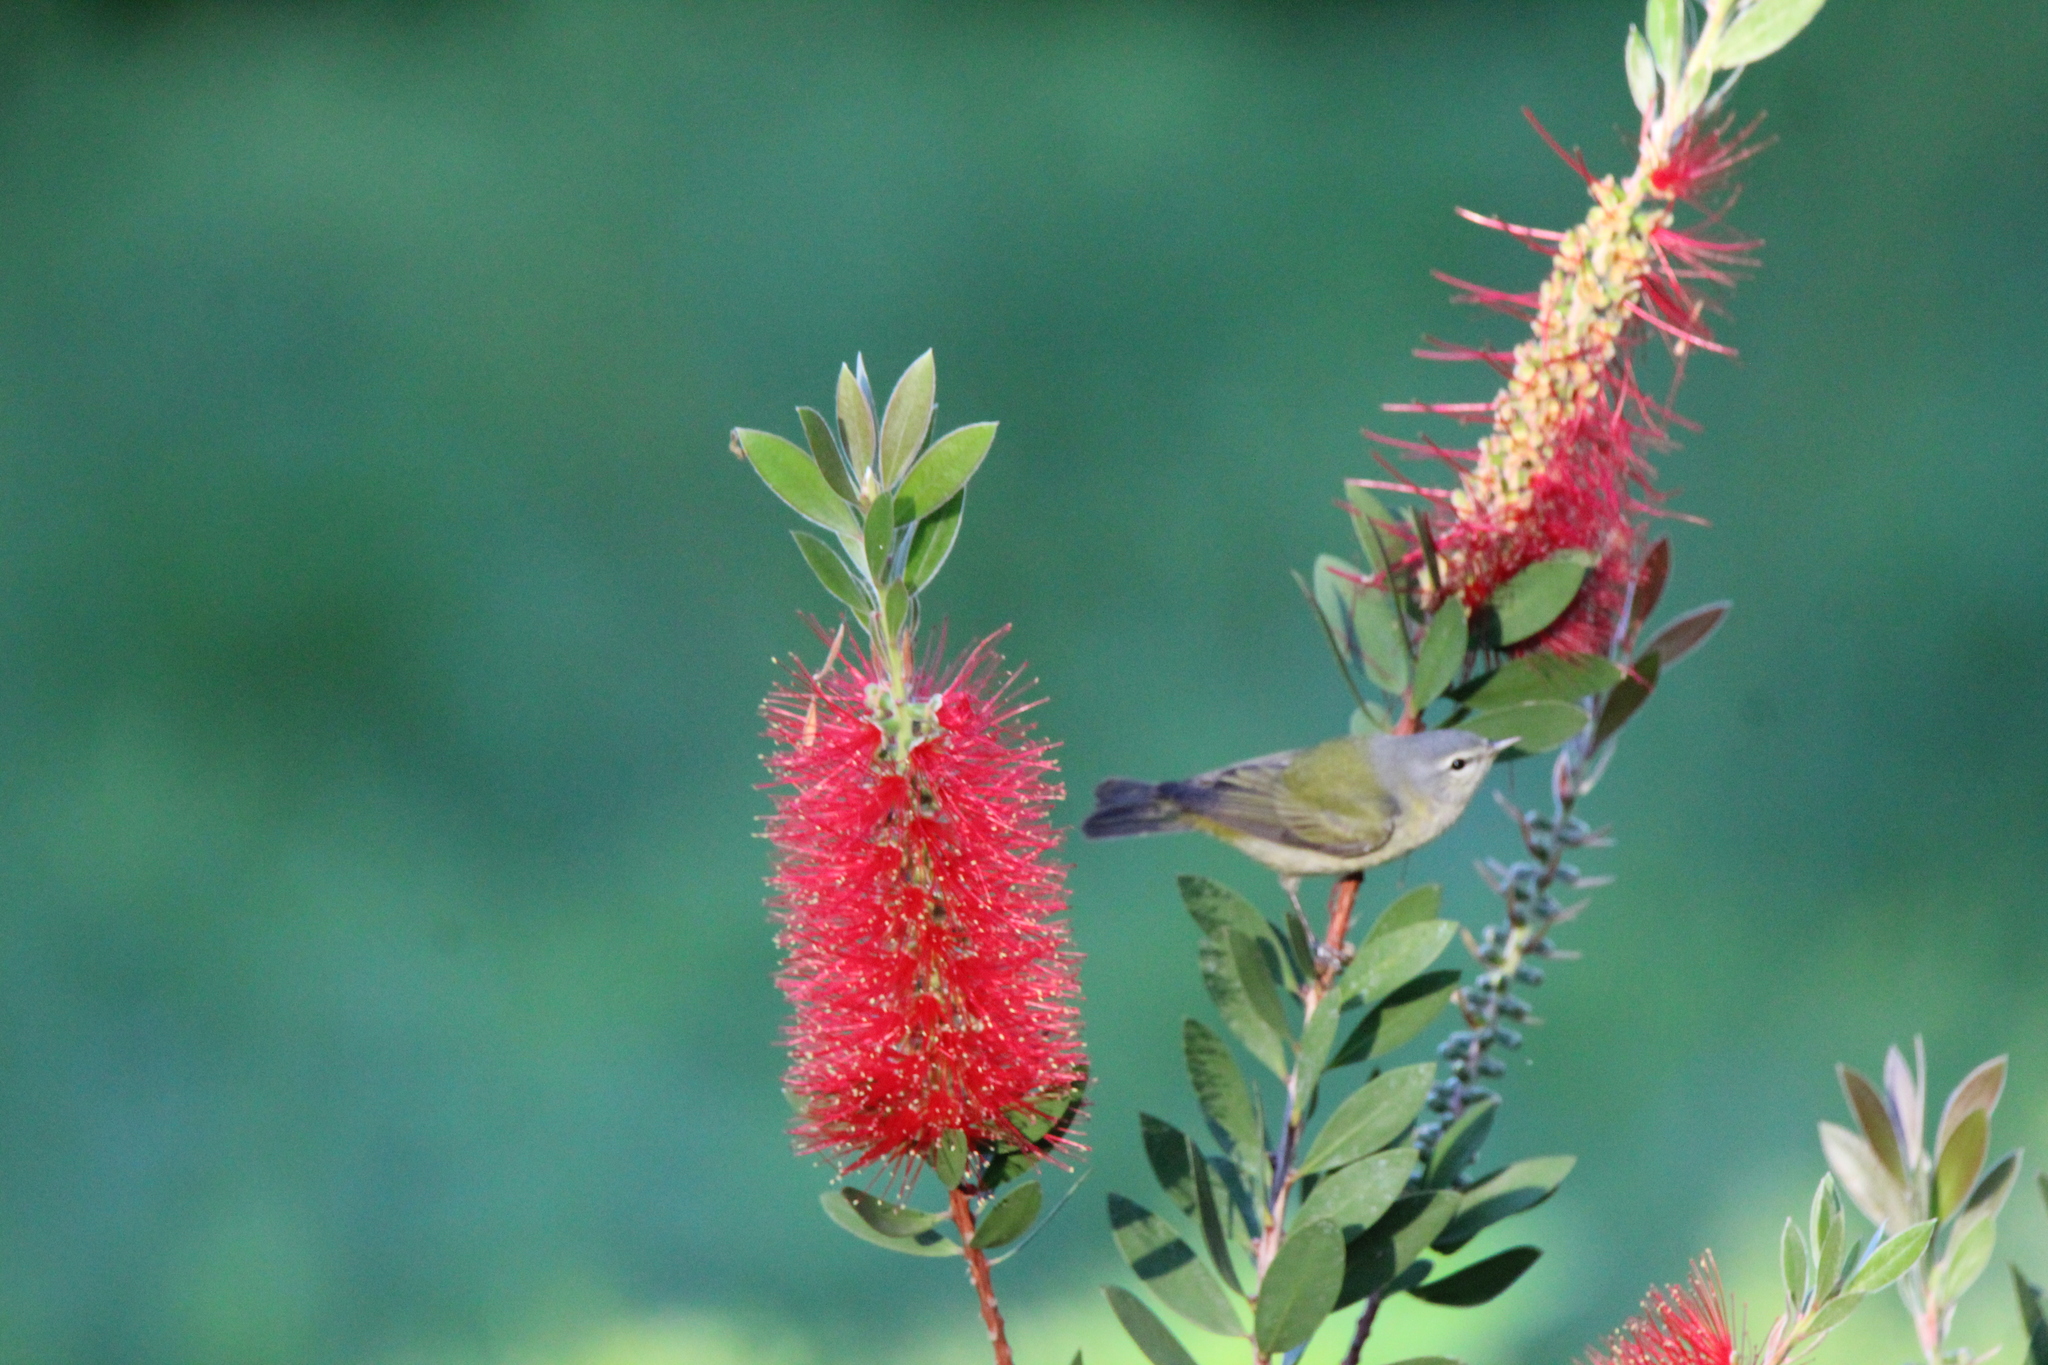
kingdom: Animalia
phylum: Chordata
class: Aves
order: Passeriformes
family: Parulidae
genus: Leiothlypis
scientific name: Leiothlypis peregrina
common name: Tennessee warbler
